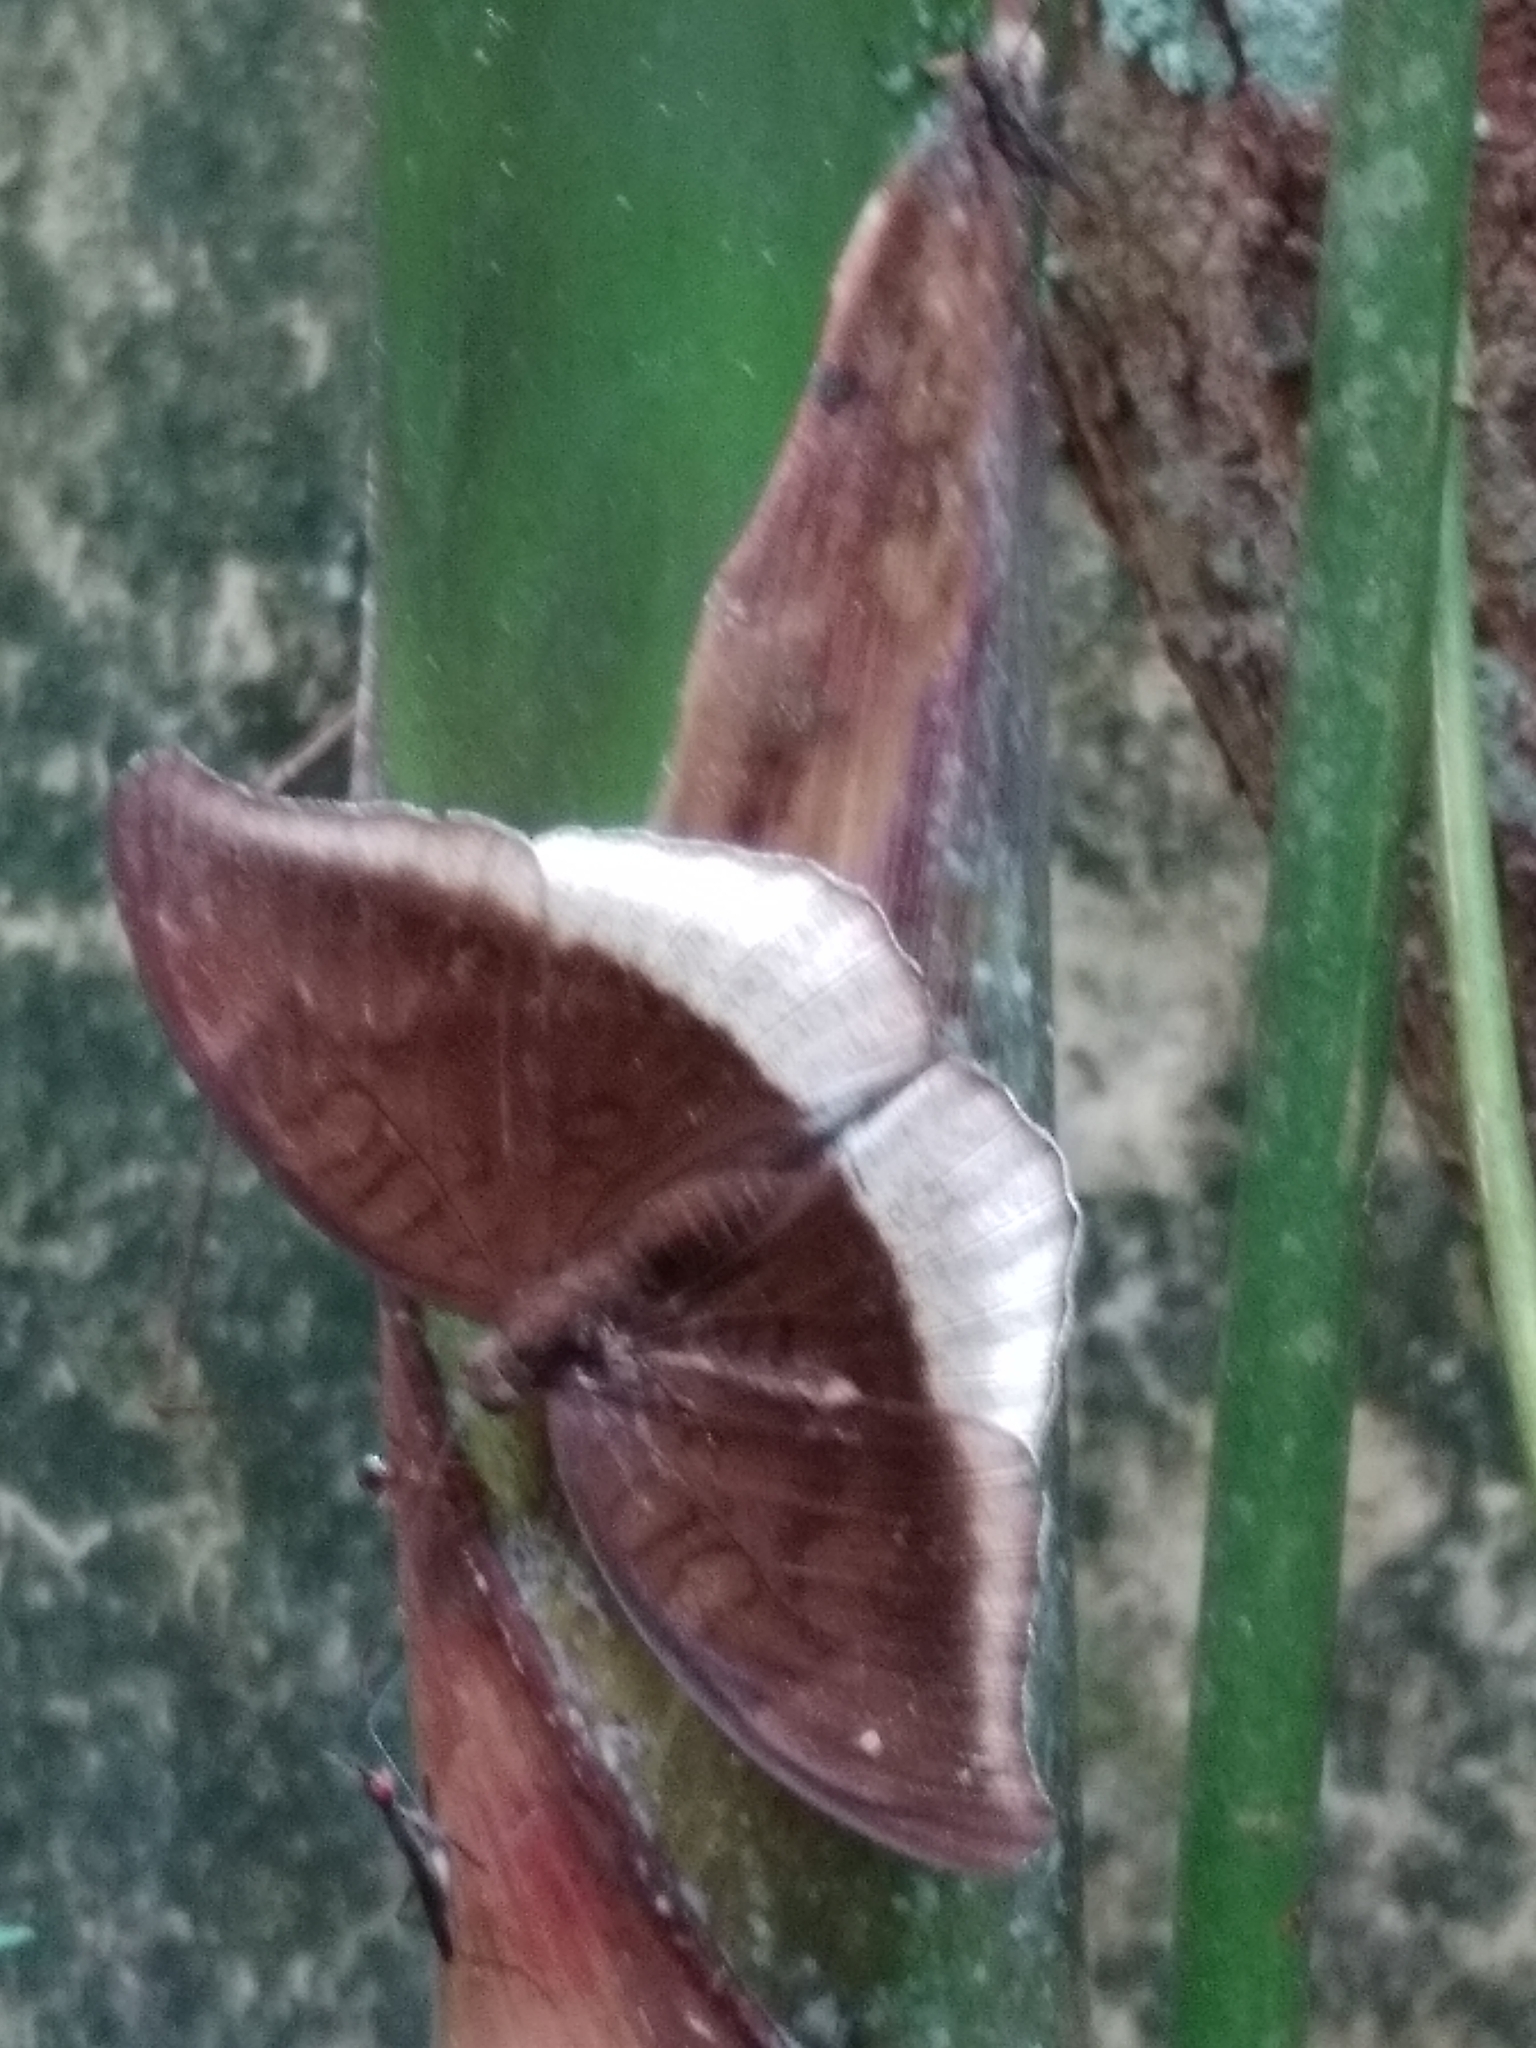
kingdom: Animalia
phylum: Arthropoda
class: Insecta
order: Lepidoptera
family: Nymphalidae
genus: Tanaecia
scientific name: Tanaecia lepidea
